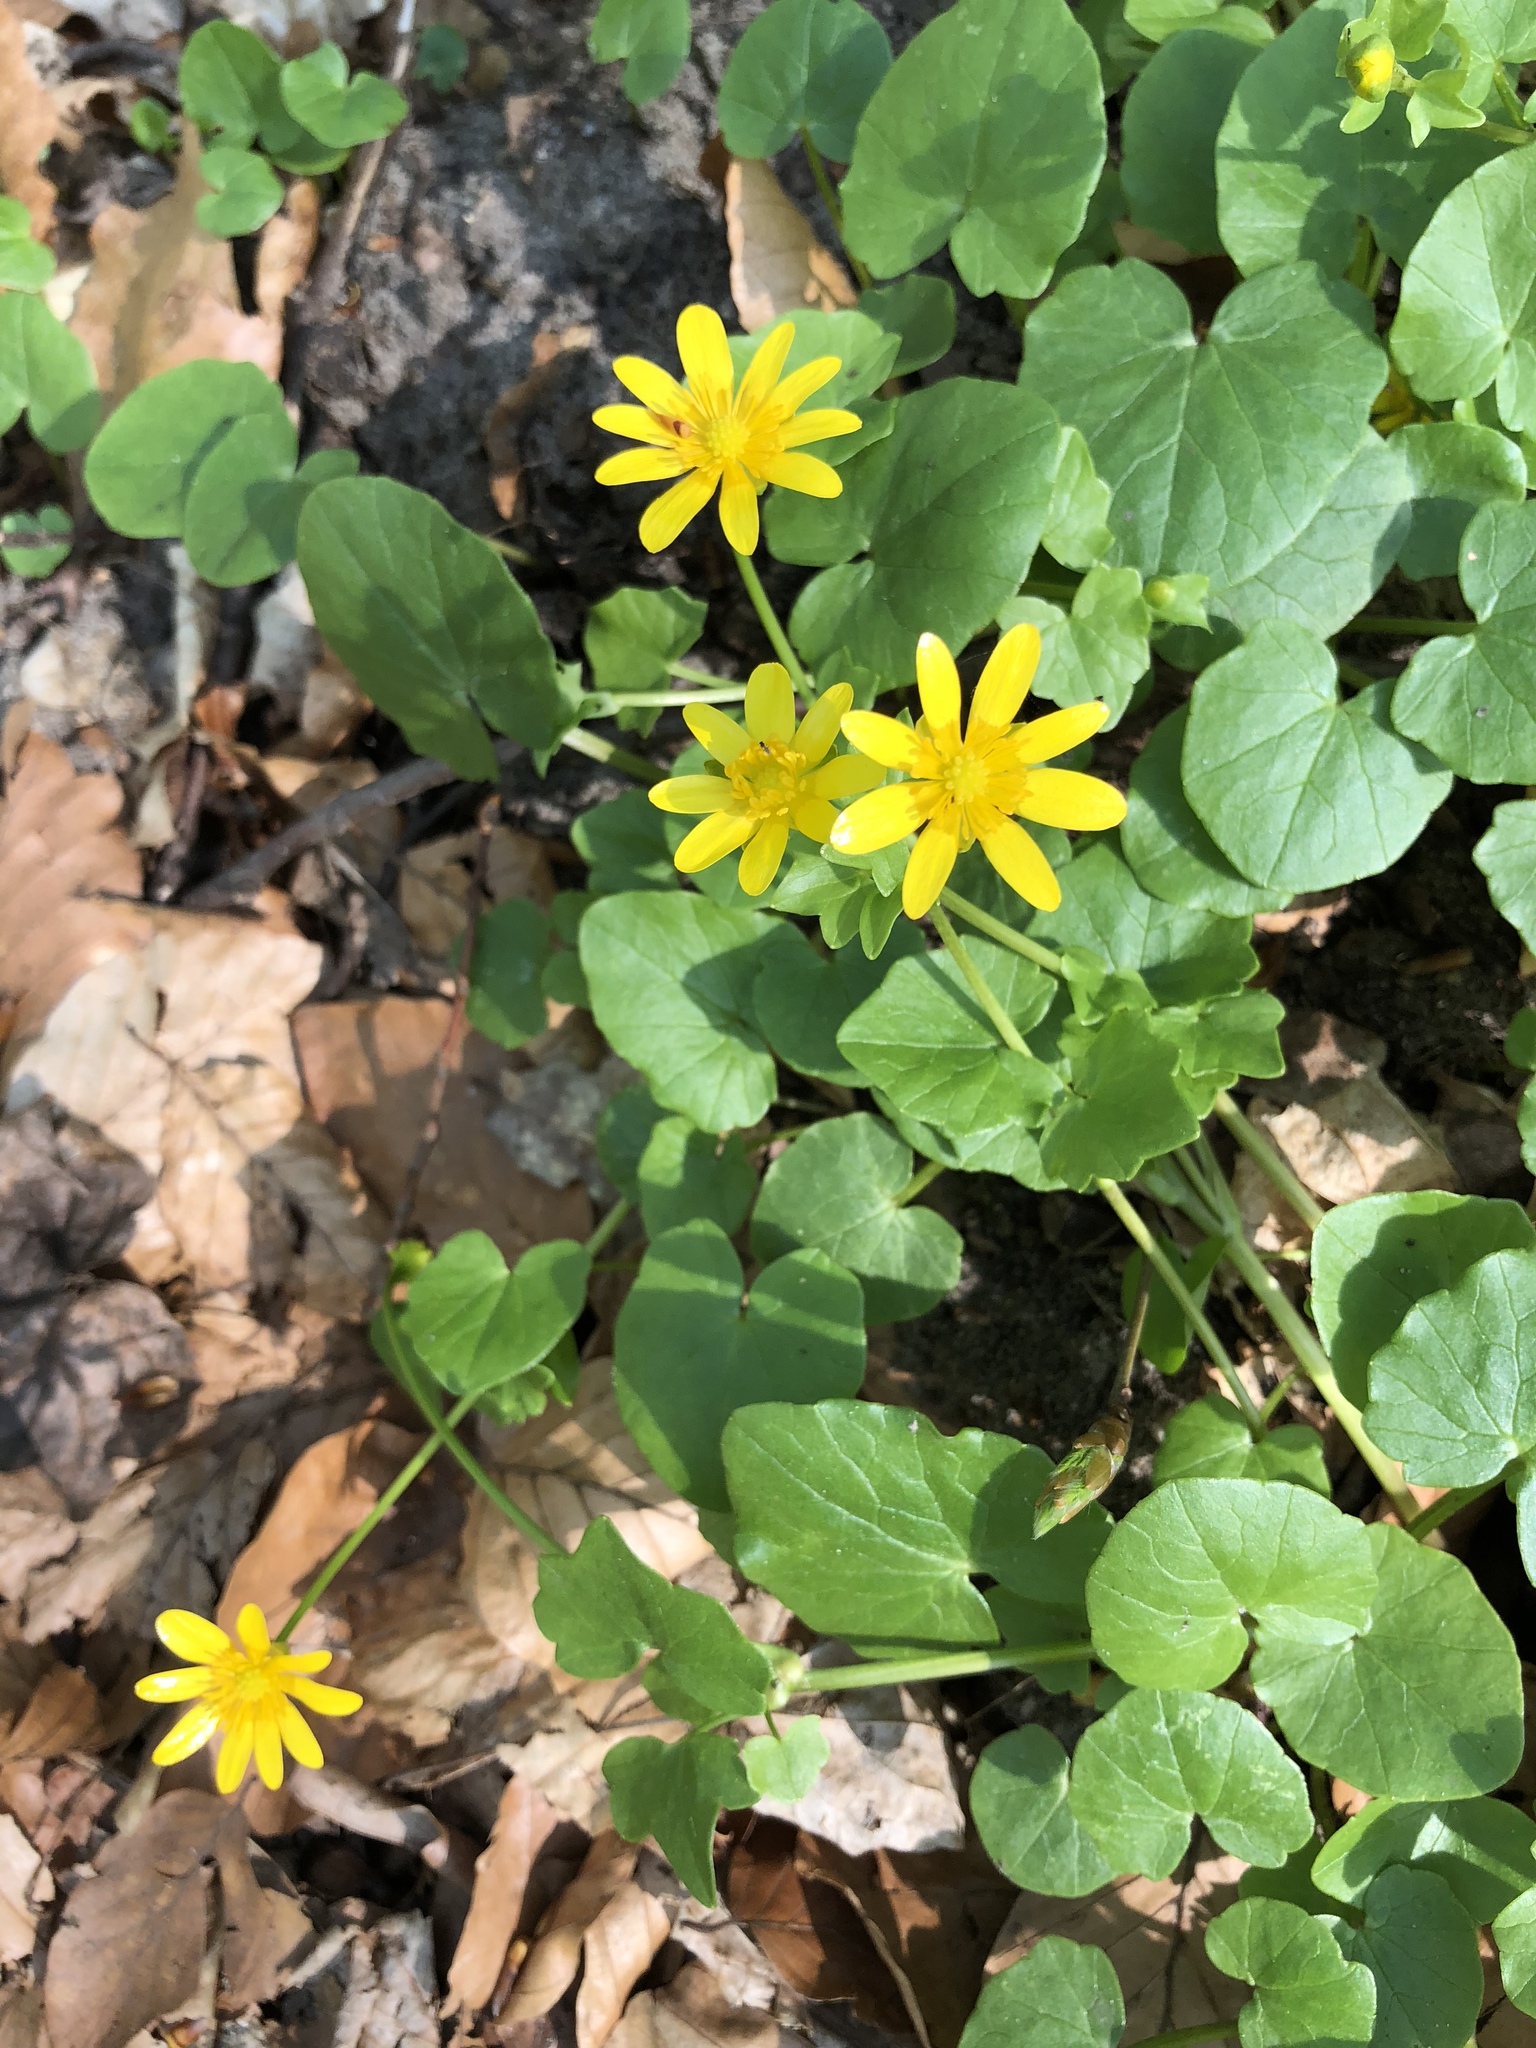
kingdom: Plantae
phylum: Tracheophyta
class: Magnoliopsida
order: Ranunculales
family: Ranunculaceae
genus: Ficaria
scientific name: Ficaria verna
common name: Lesser celandine
